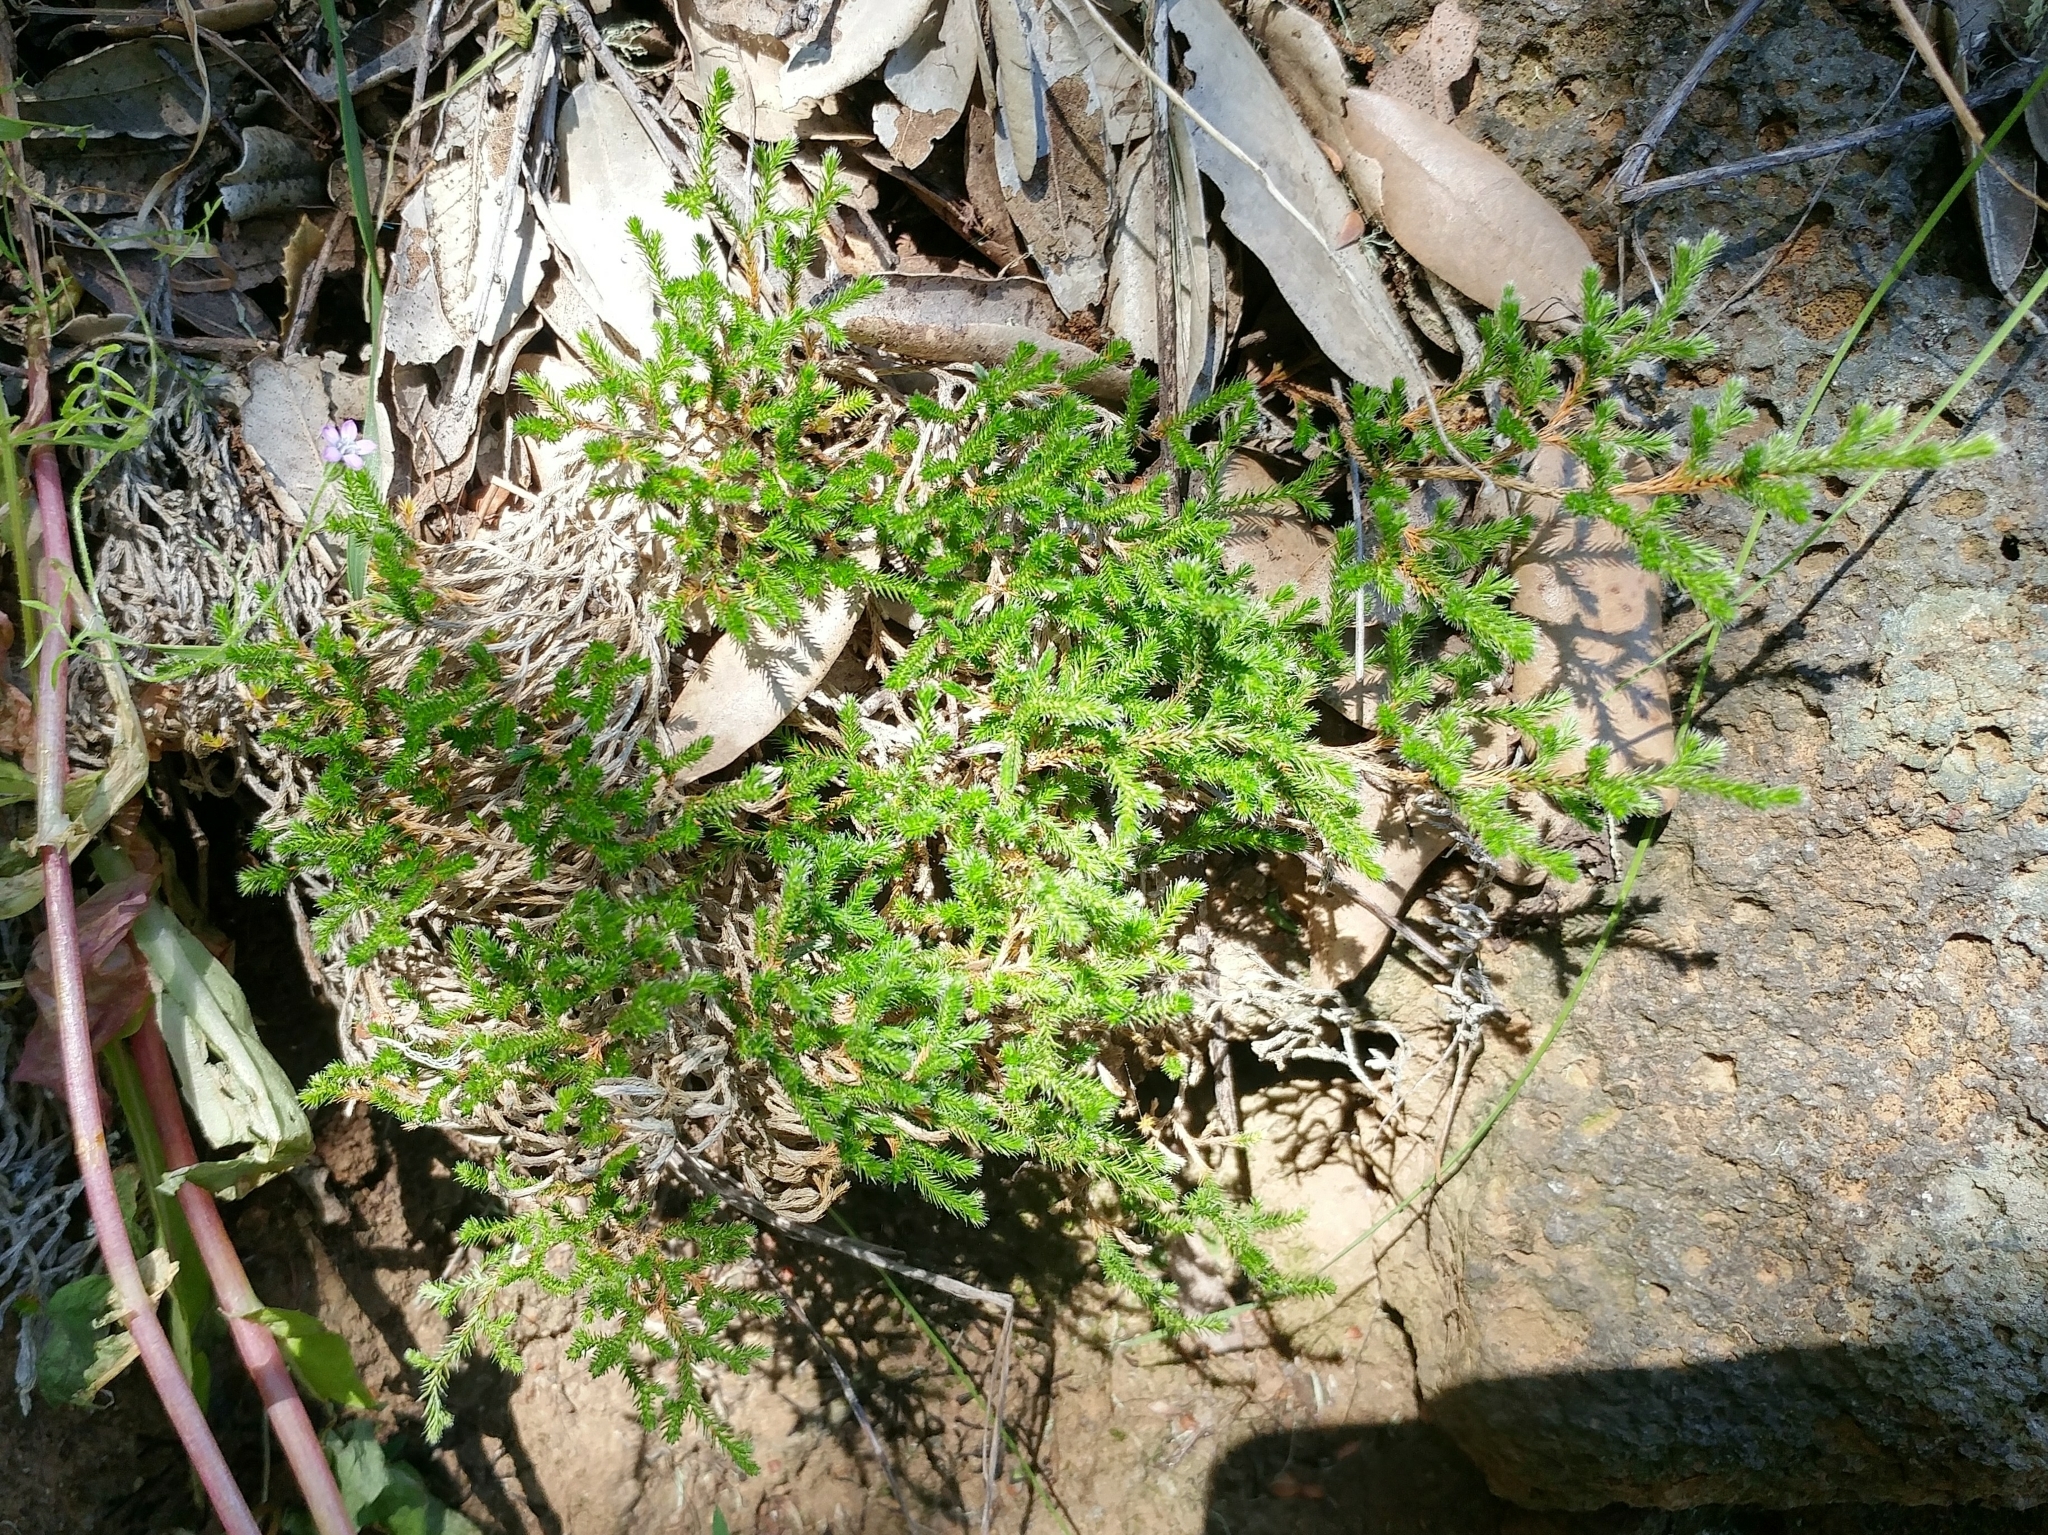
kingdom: Plantae
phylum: Tracheophyta
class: Lycopodiopsida
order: Selaginellales
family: Selaginellaceae
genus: Selaginella
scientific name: Selaginella bigelovii
